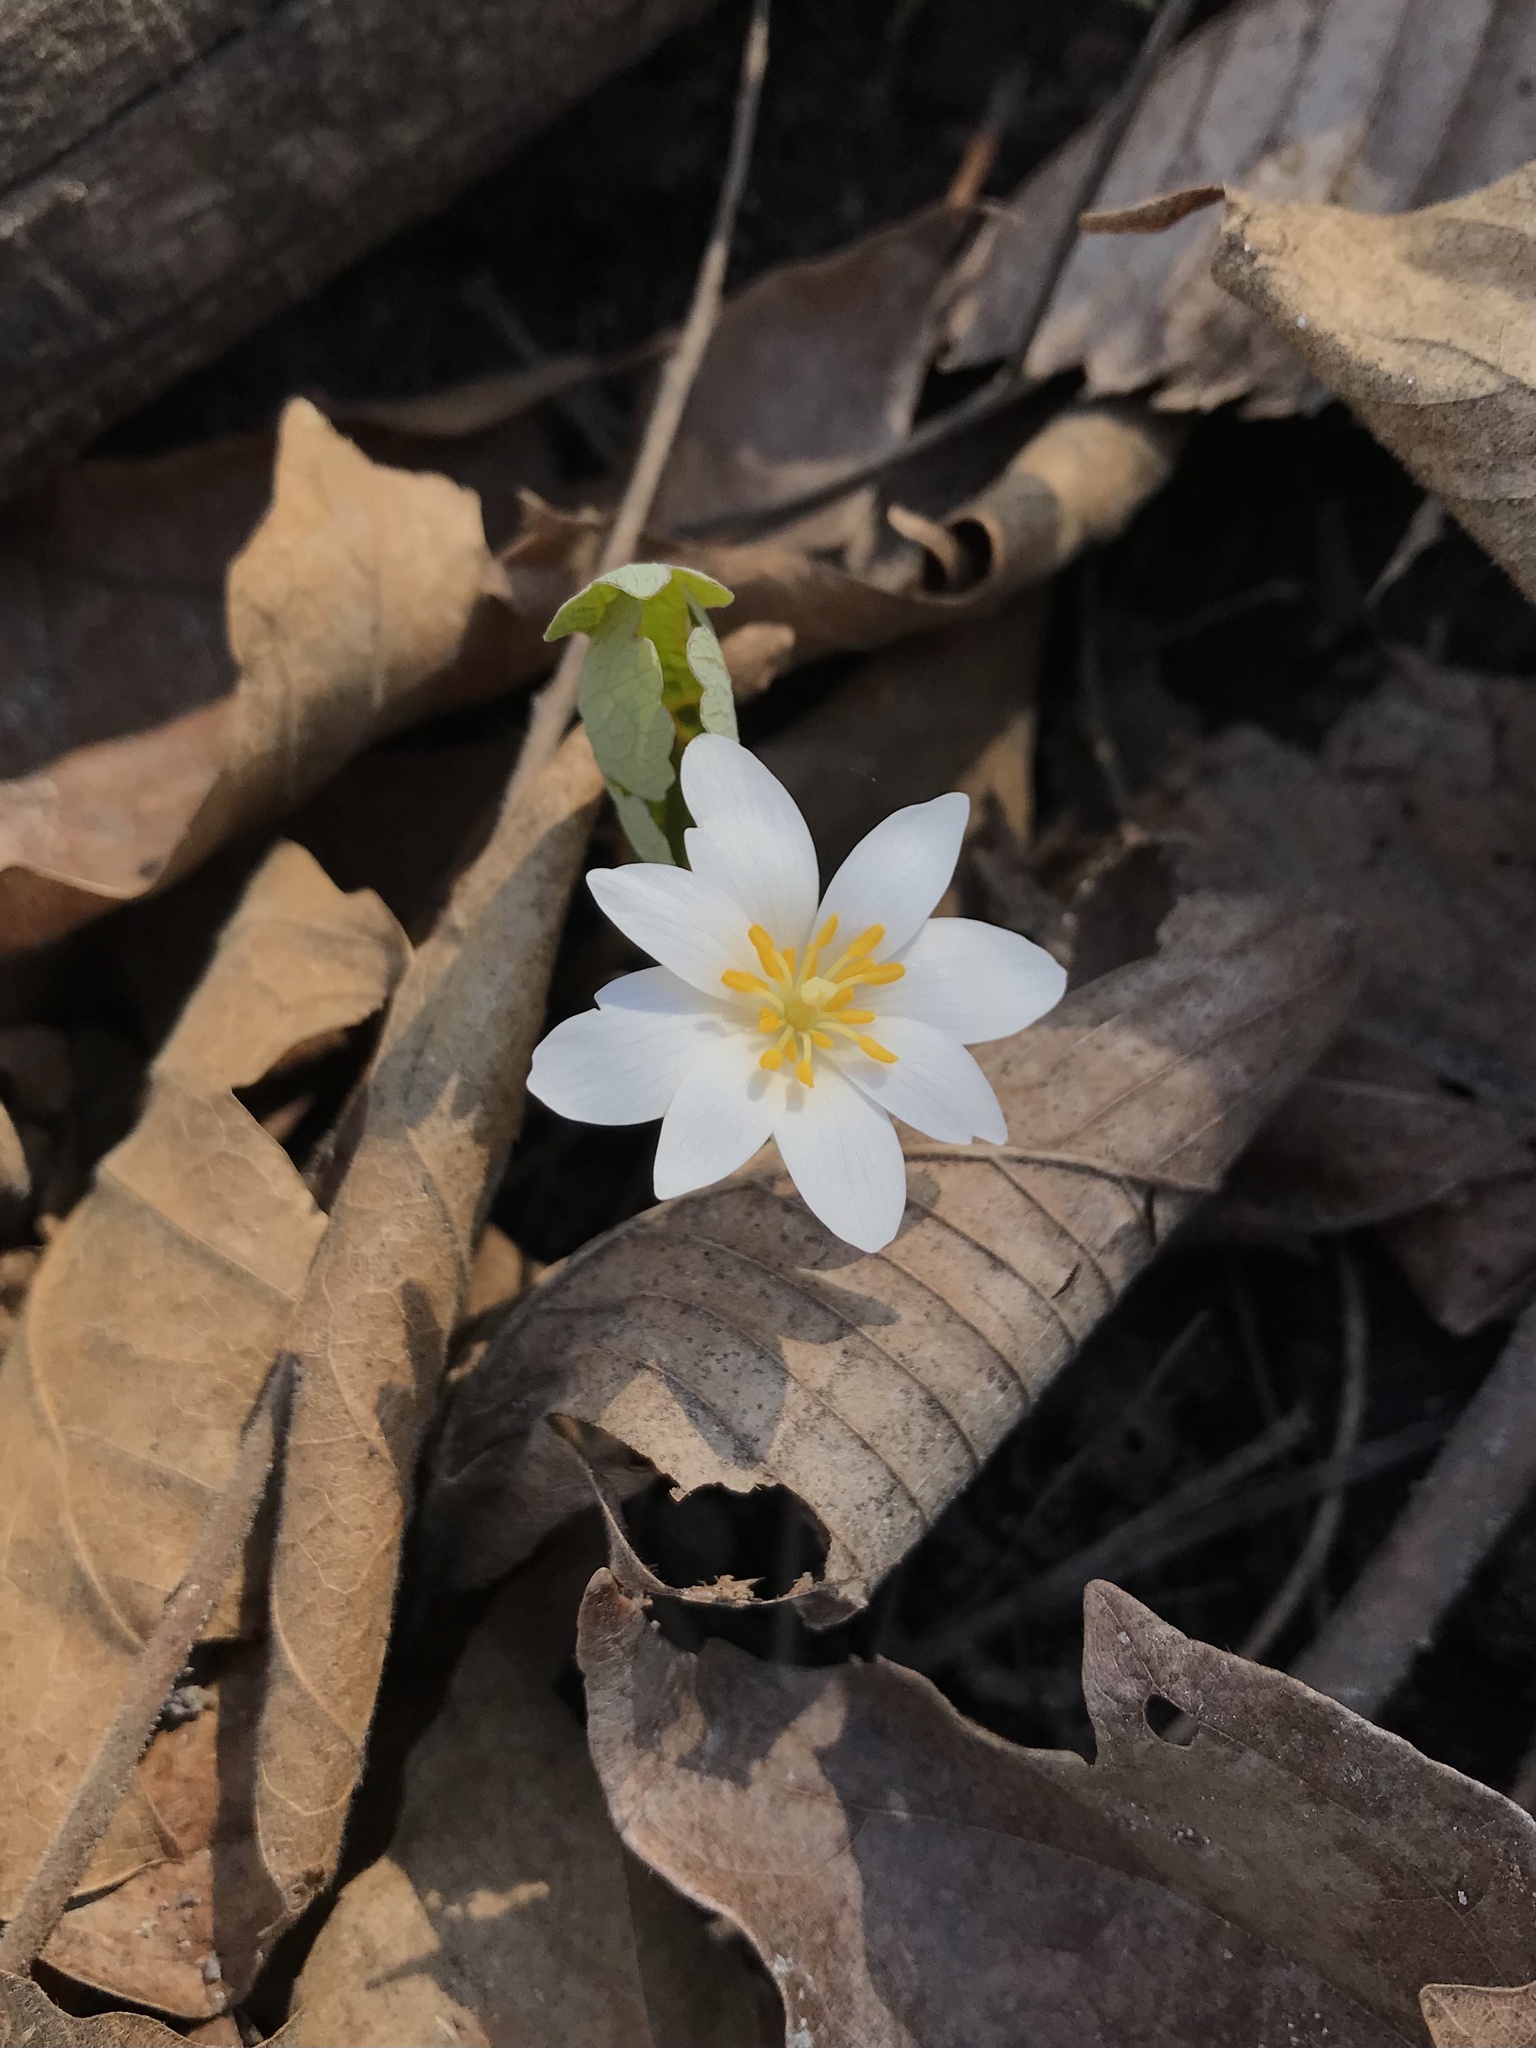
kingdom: Plantae
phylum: Tracheophyta
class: Magnoliopsida
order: Ranunculales
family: Papaveraceae
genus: Sanguinaria
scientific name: Sanguinaria canadensis
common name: Bloodroot
